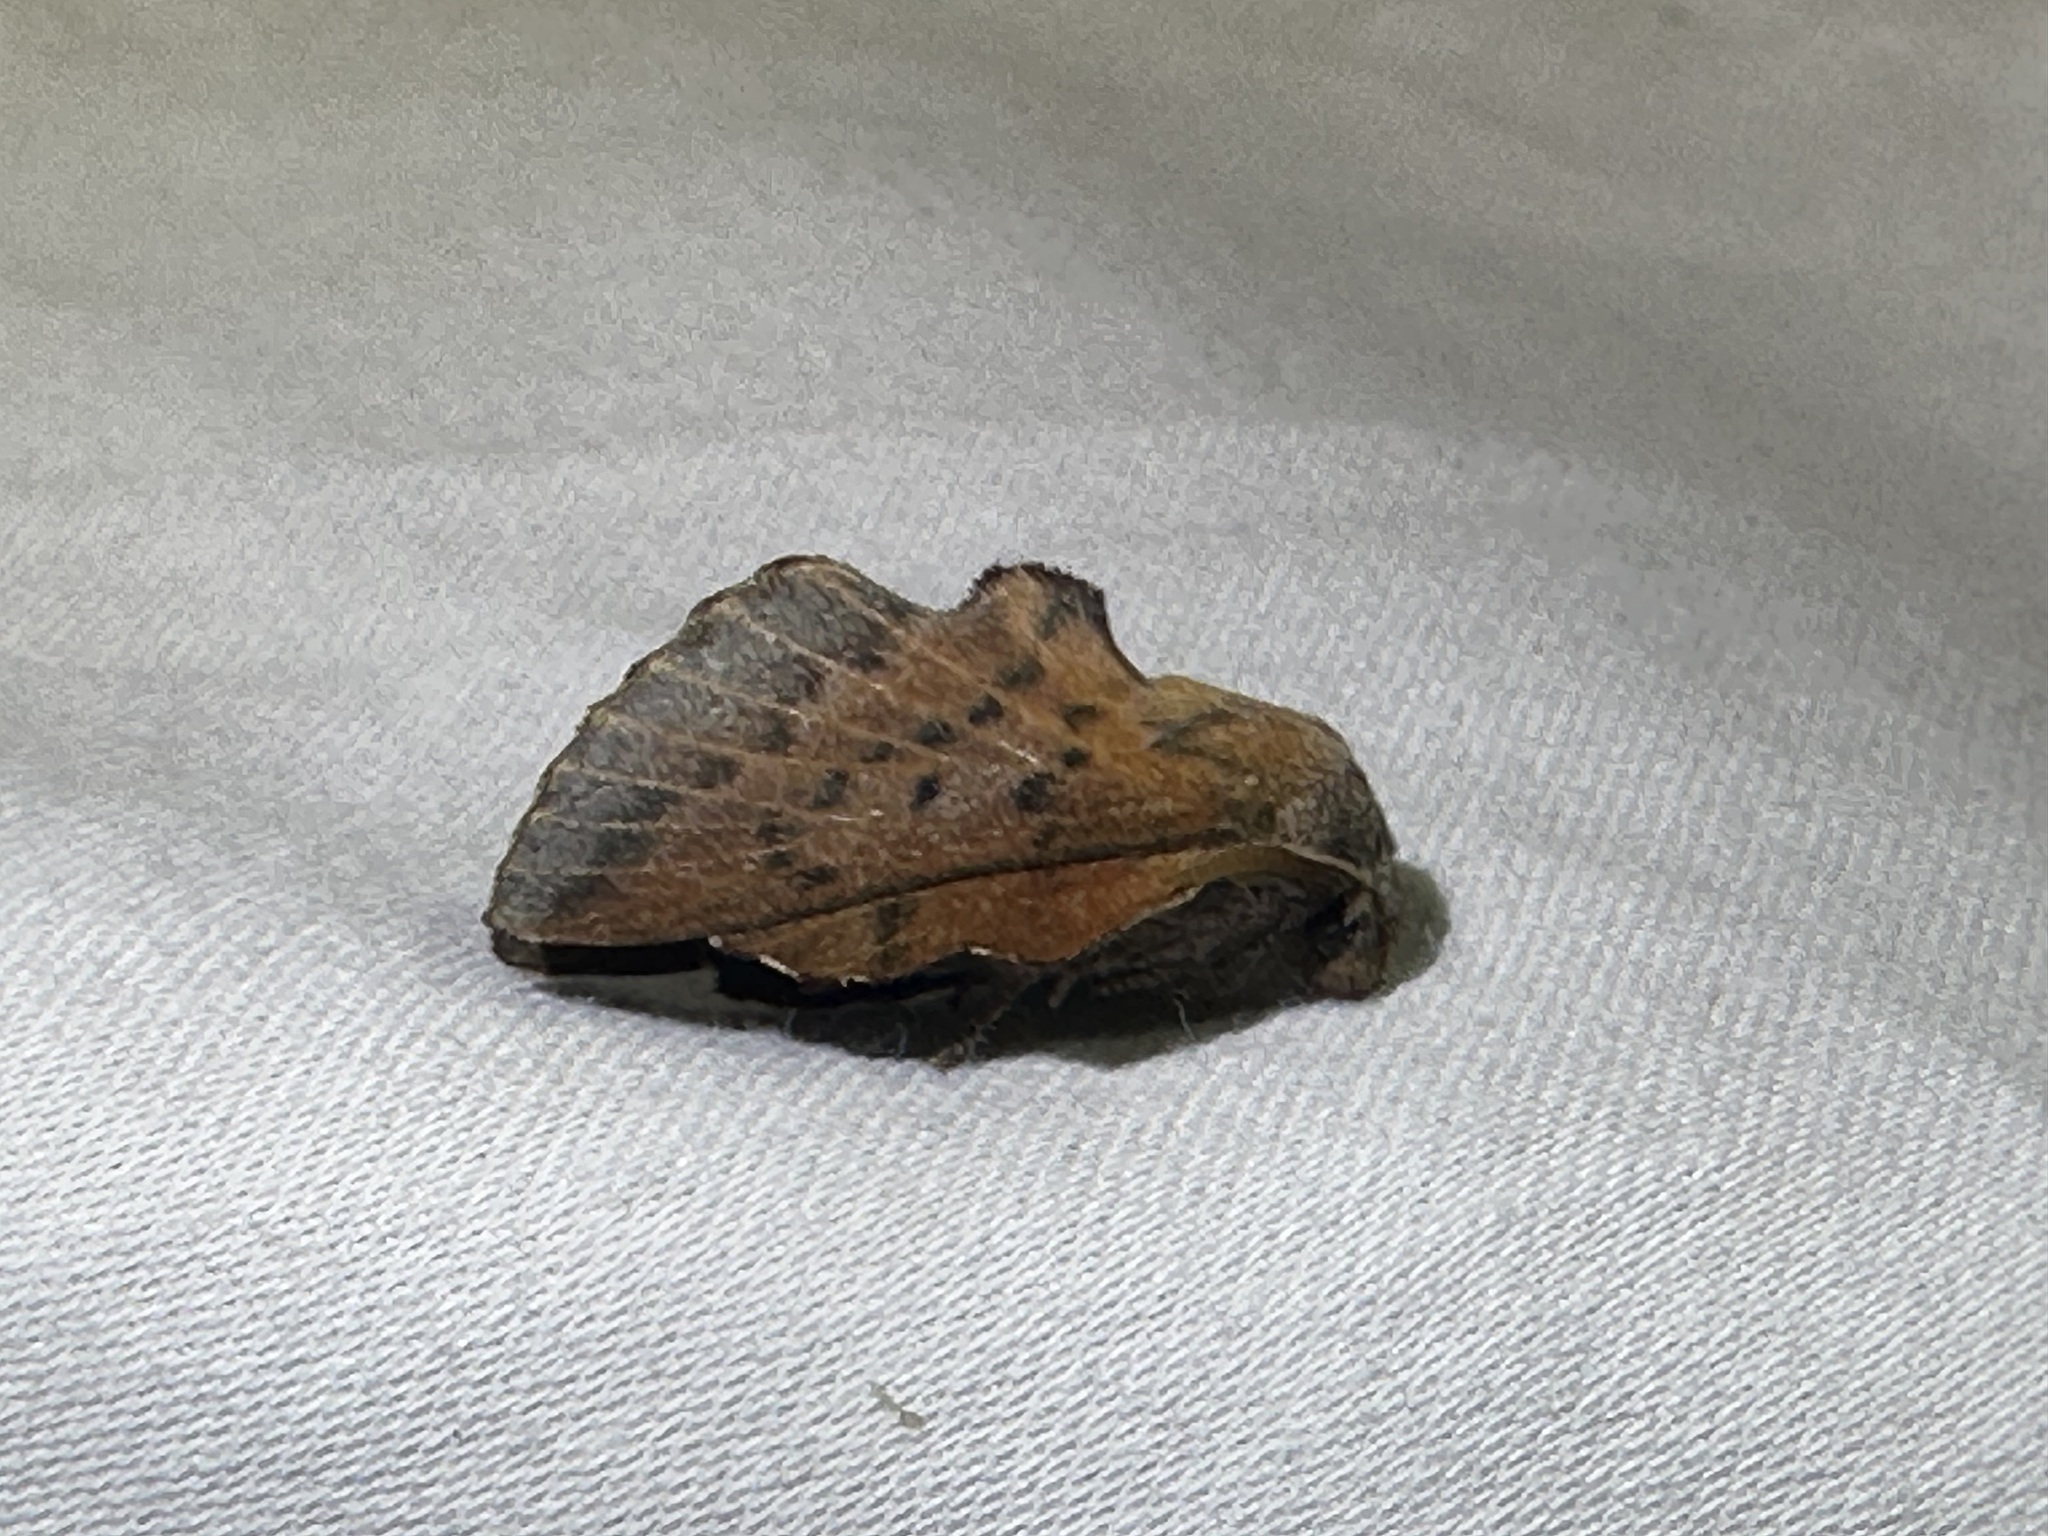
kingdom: Animalia
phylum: Arthropoda
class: Insecta
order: Lepidoptera
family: Lasiocampidae
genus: Phyllodesma
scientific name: Phyllodesma tremulifolia
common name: Aspen lappet
